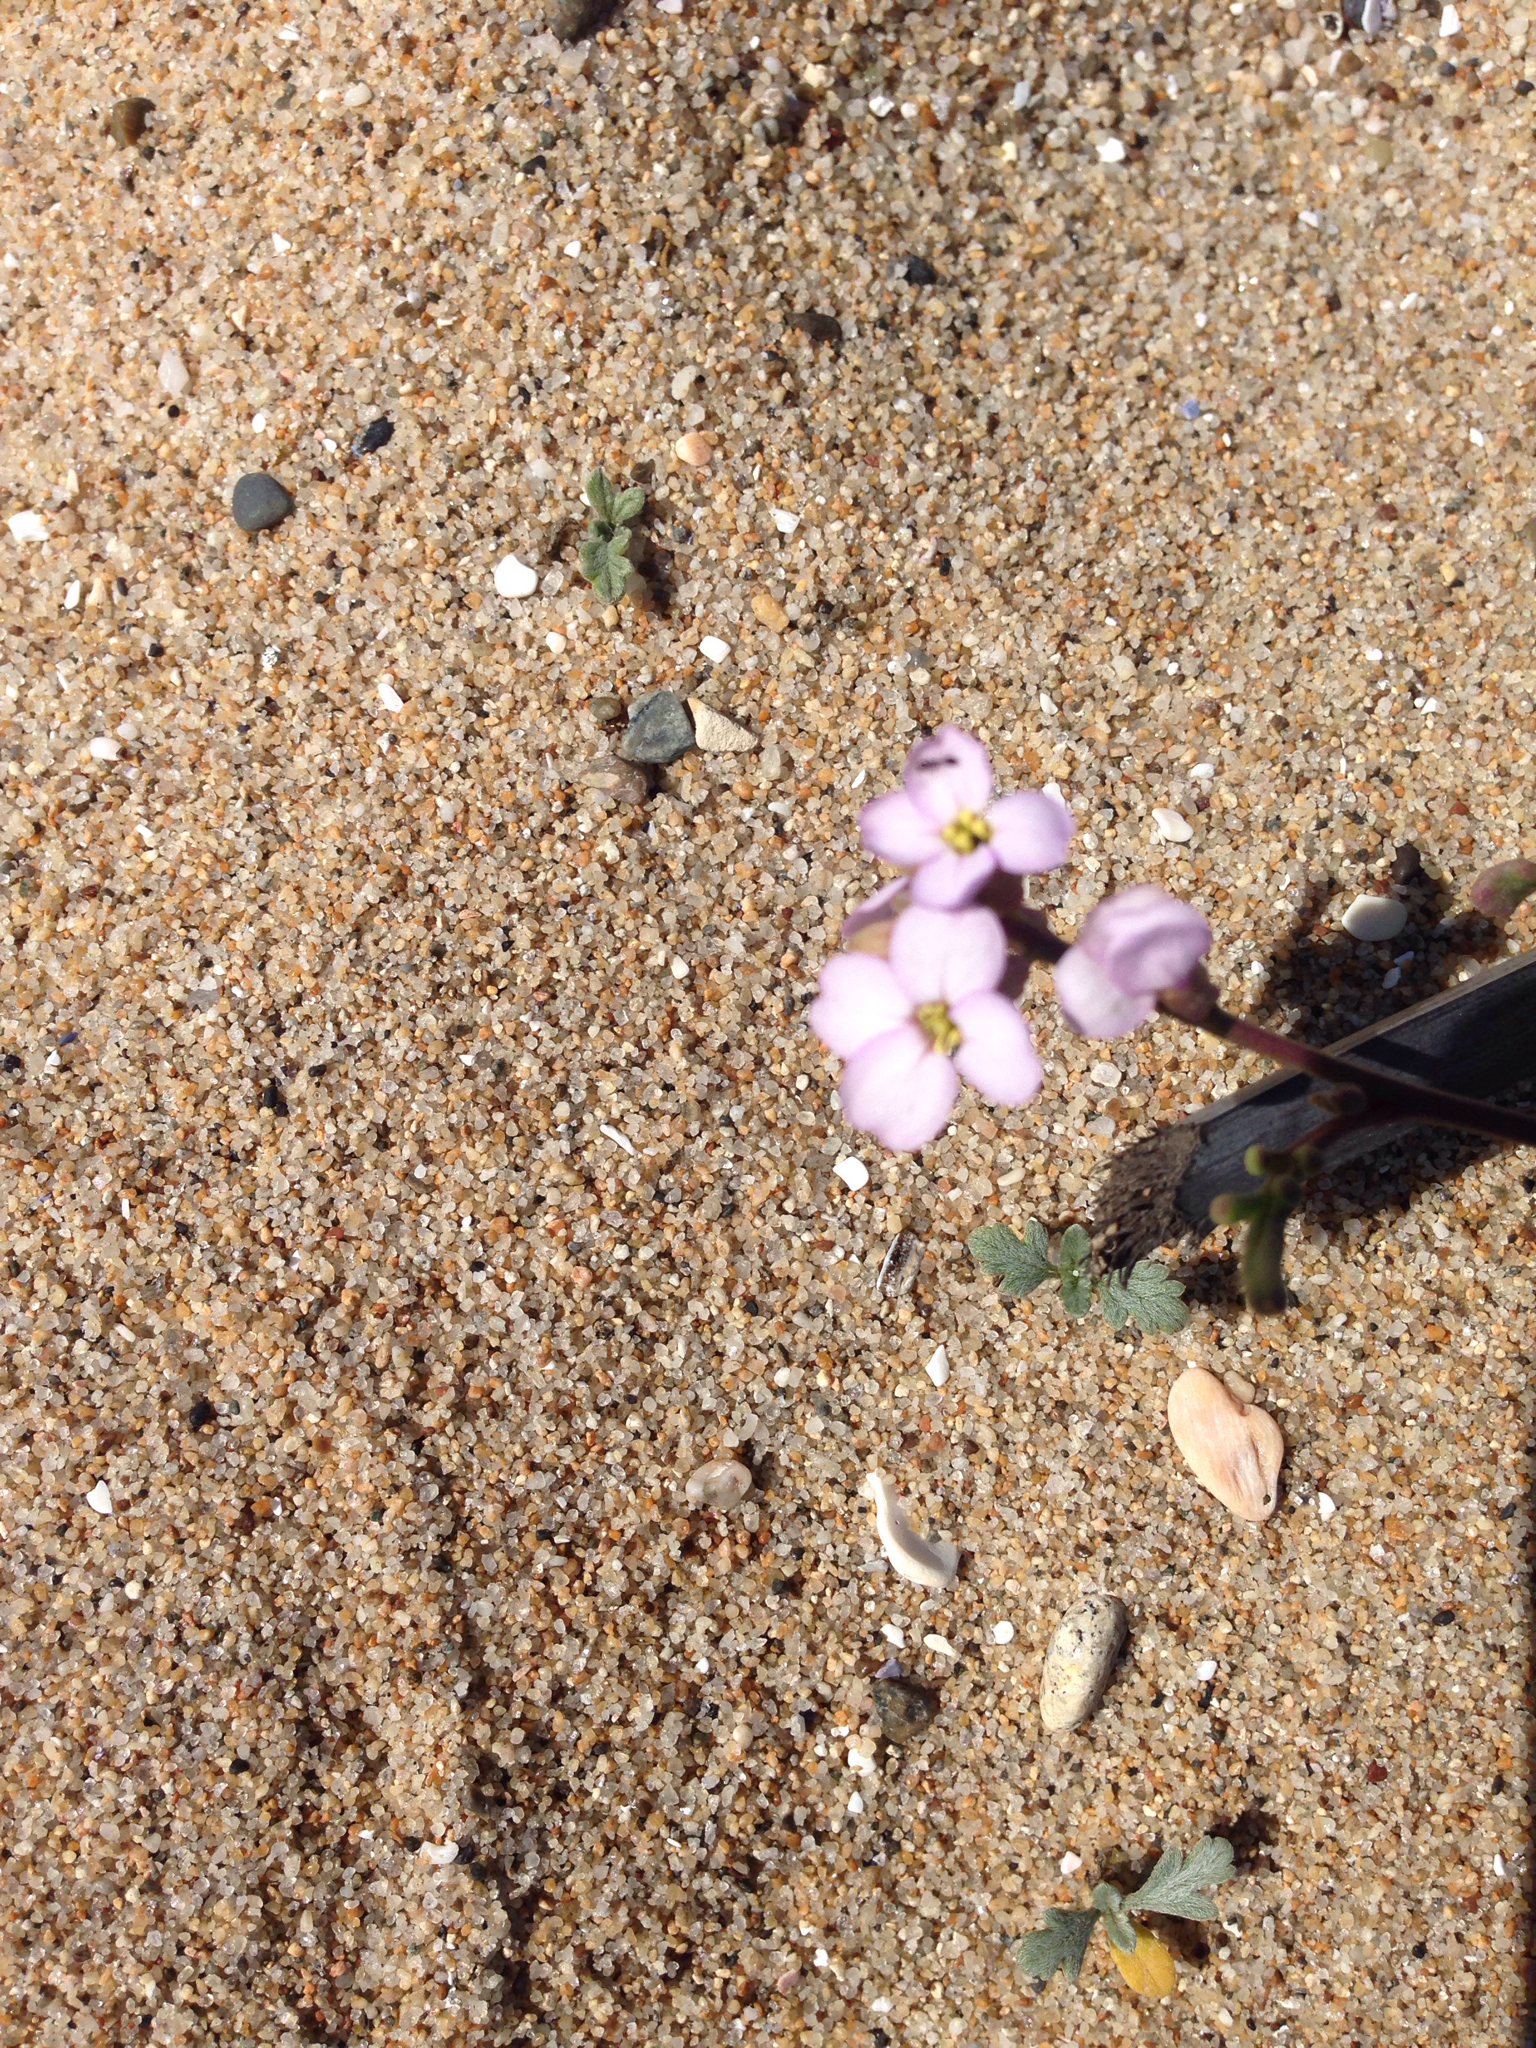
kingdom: Plantae
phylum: Tracheophyta
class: Magnoliopsida
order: Brassicales
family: Brassicaceae
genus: Cakile
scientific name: Cakile maritima
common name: Sea rocket
